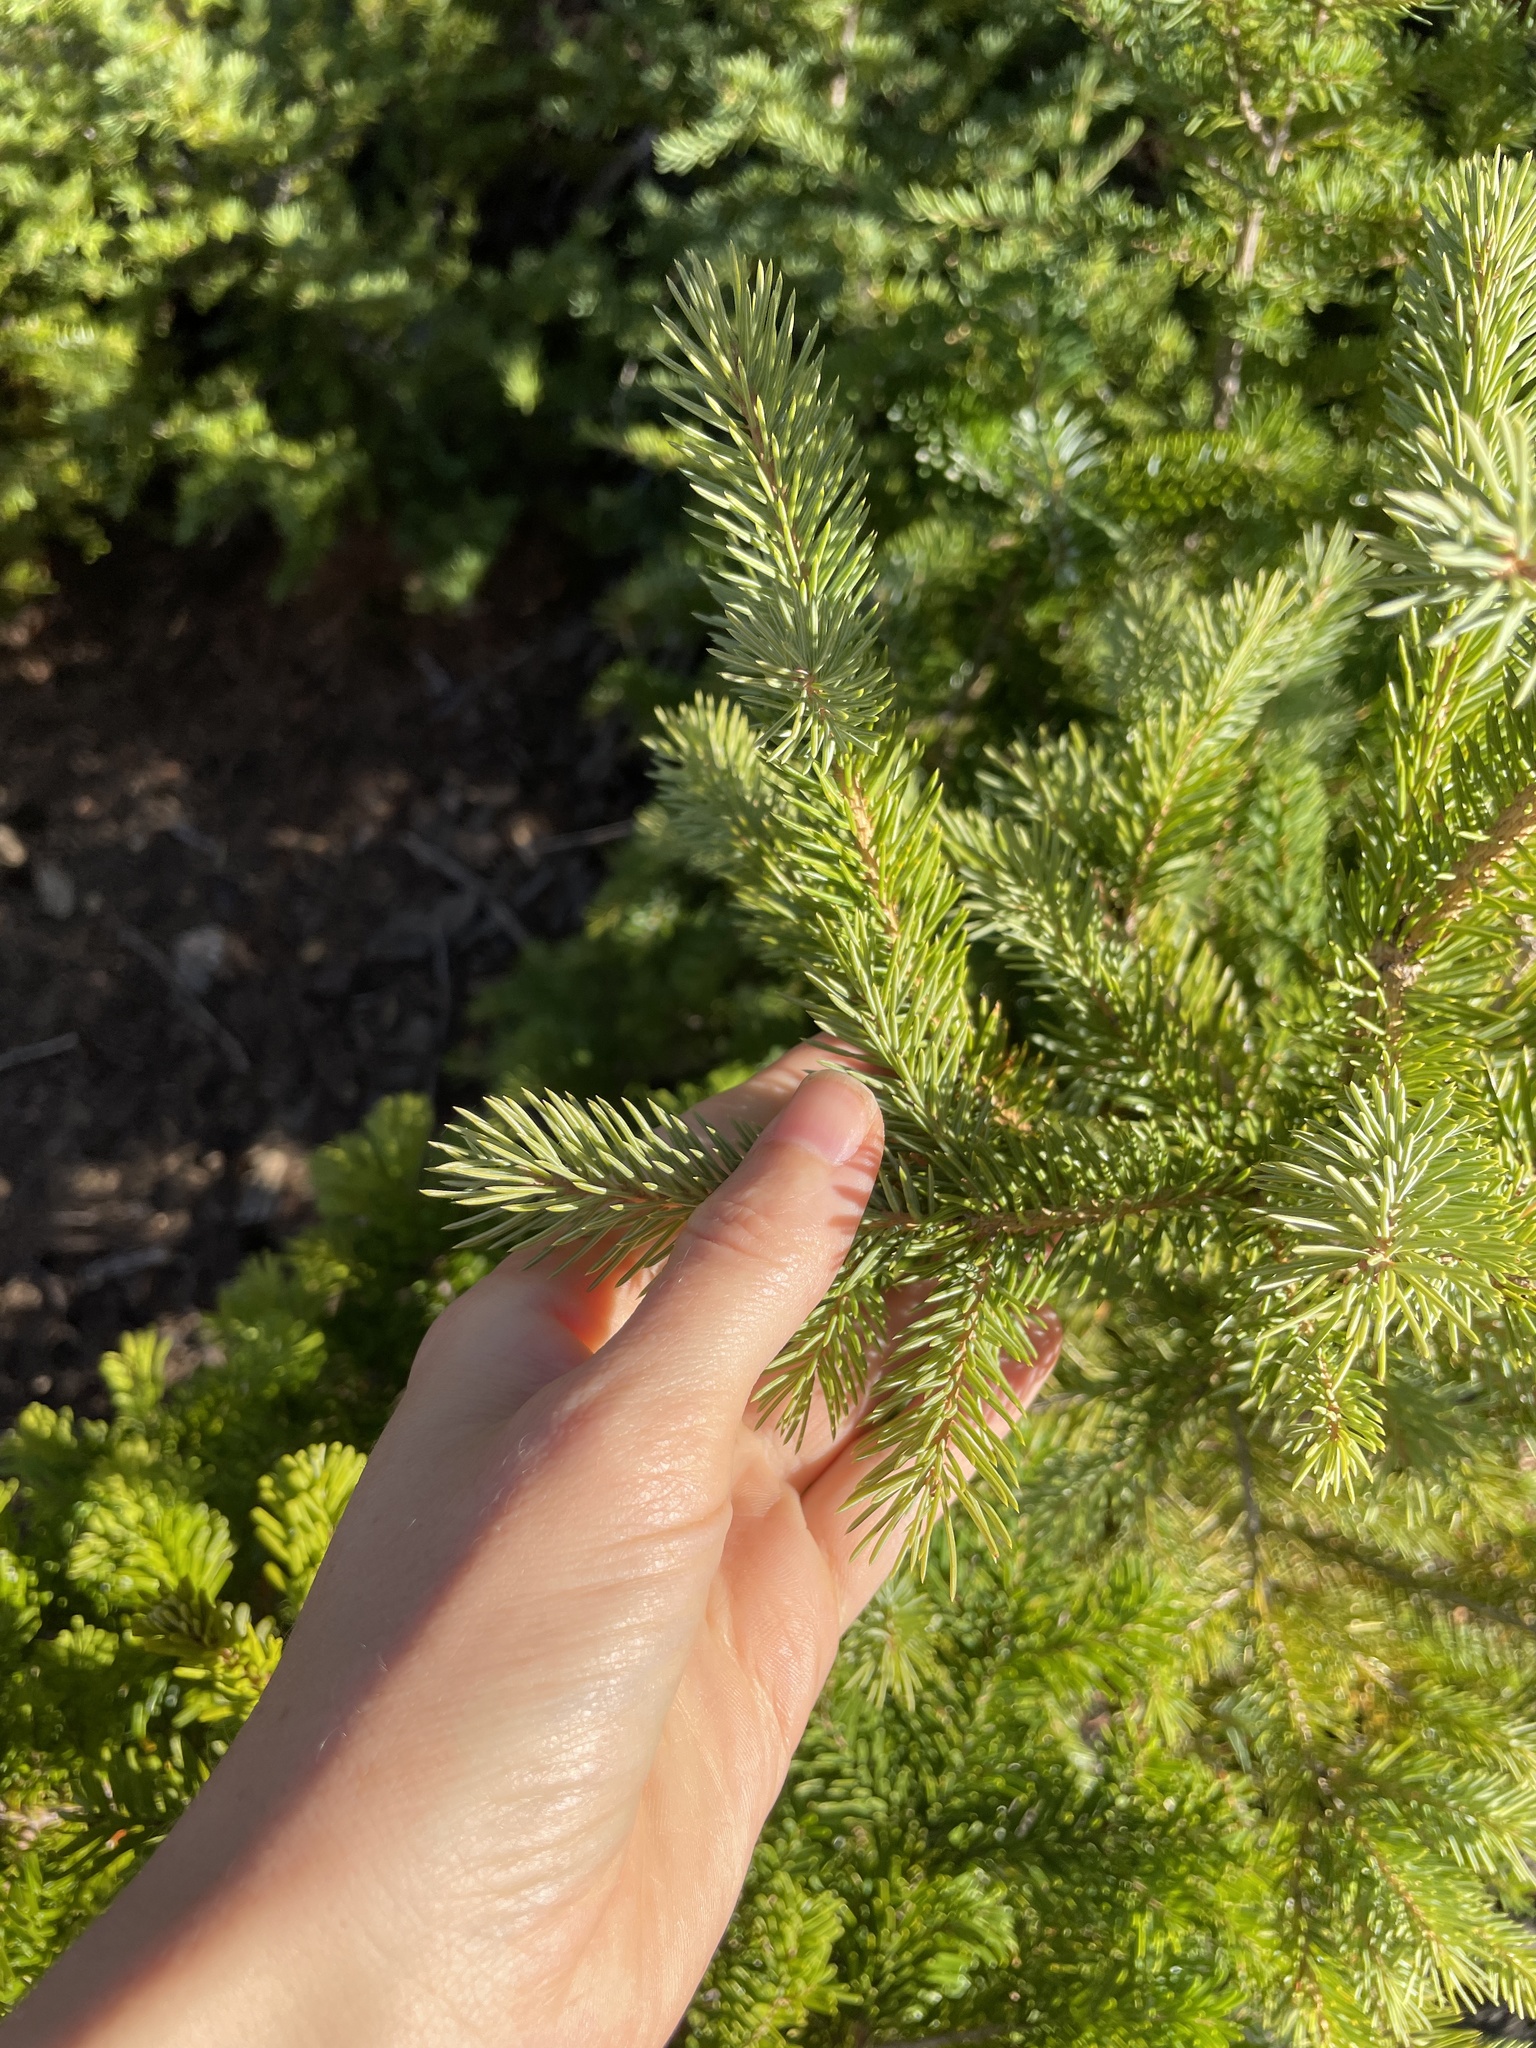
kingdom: Plantae
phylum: Tracheophyta
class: Pinopsida
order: Pinales
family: Pinaceae
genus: Picea
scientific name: Picea engelmannii
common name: Engelmann spruce
